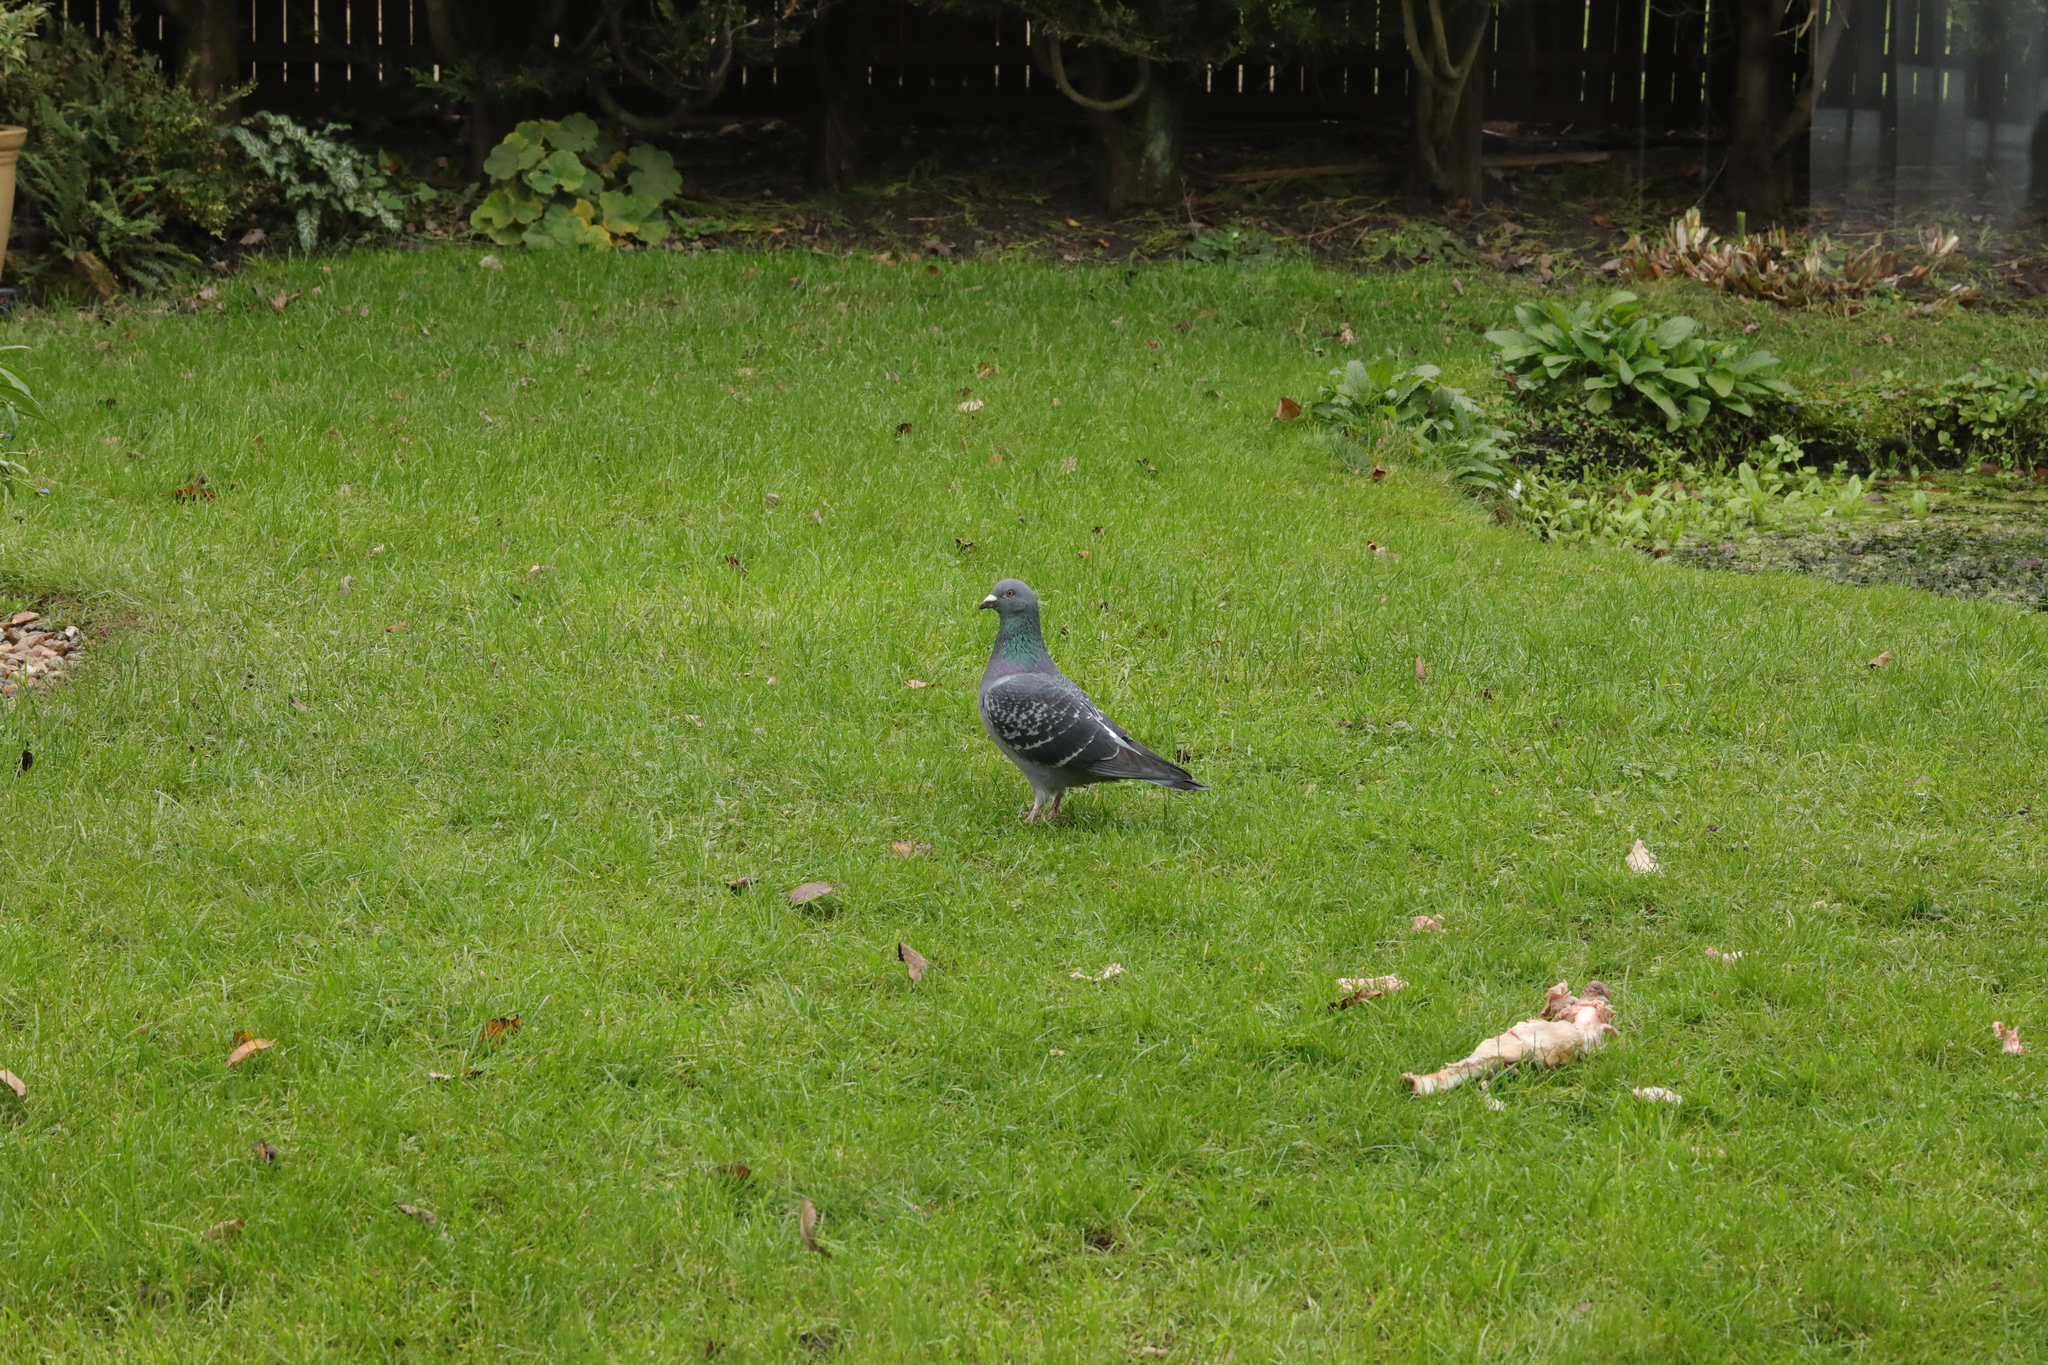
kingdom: Animalia
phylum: Chordata
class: Aves
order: Columbiformes
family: Columbidae
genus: Columba
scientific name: Columba livia
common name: Rock pigeon
